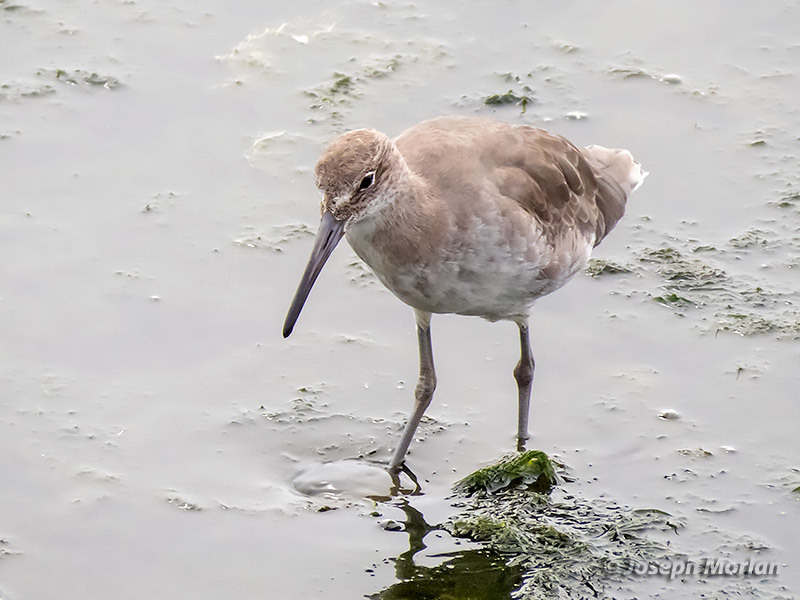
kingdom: Animalia
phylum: Chordata
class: Aves
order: Charadriiformes
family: Scolopacidae
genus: Tringa
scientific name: Tringa semipalmata
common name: Willet
